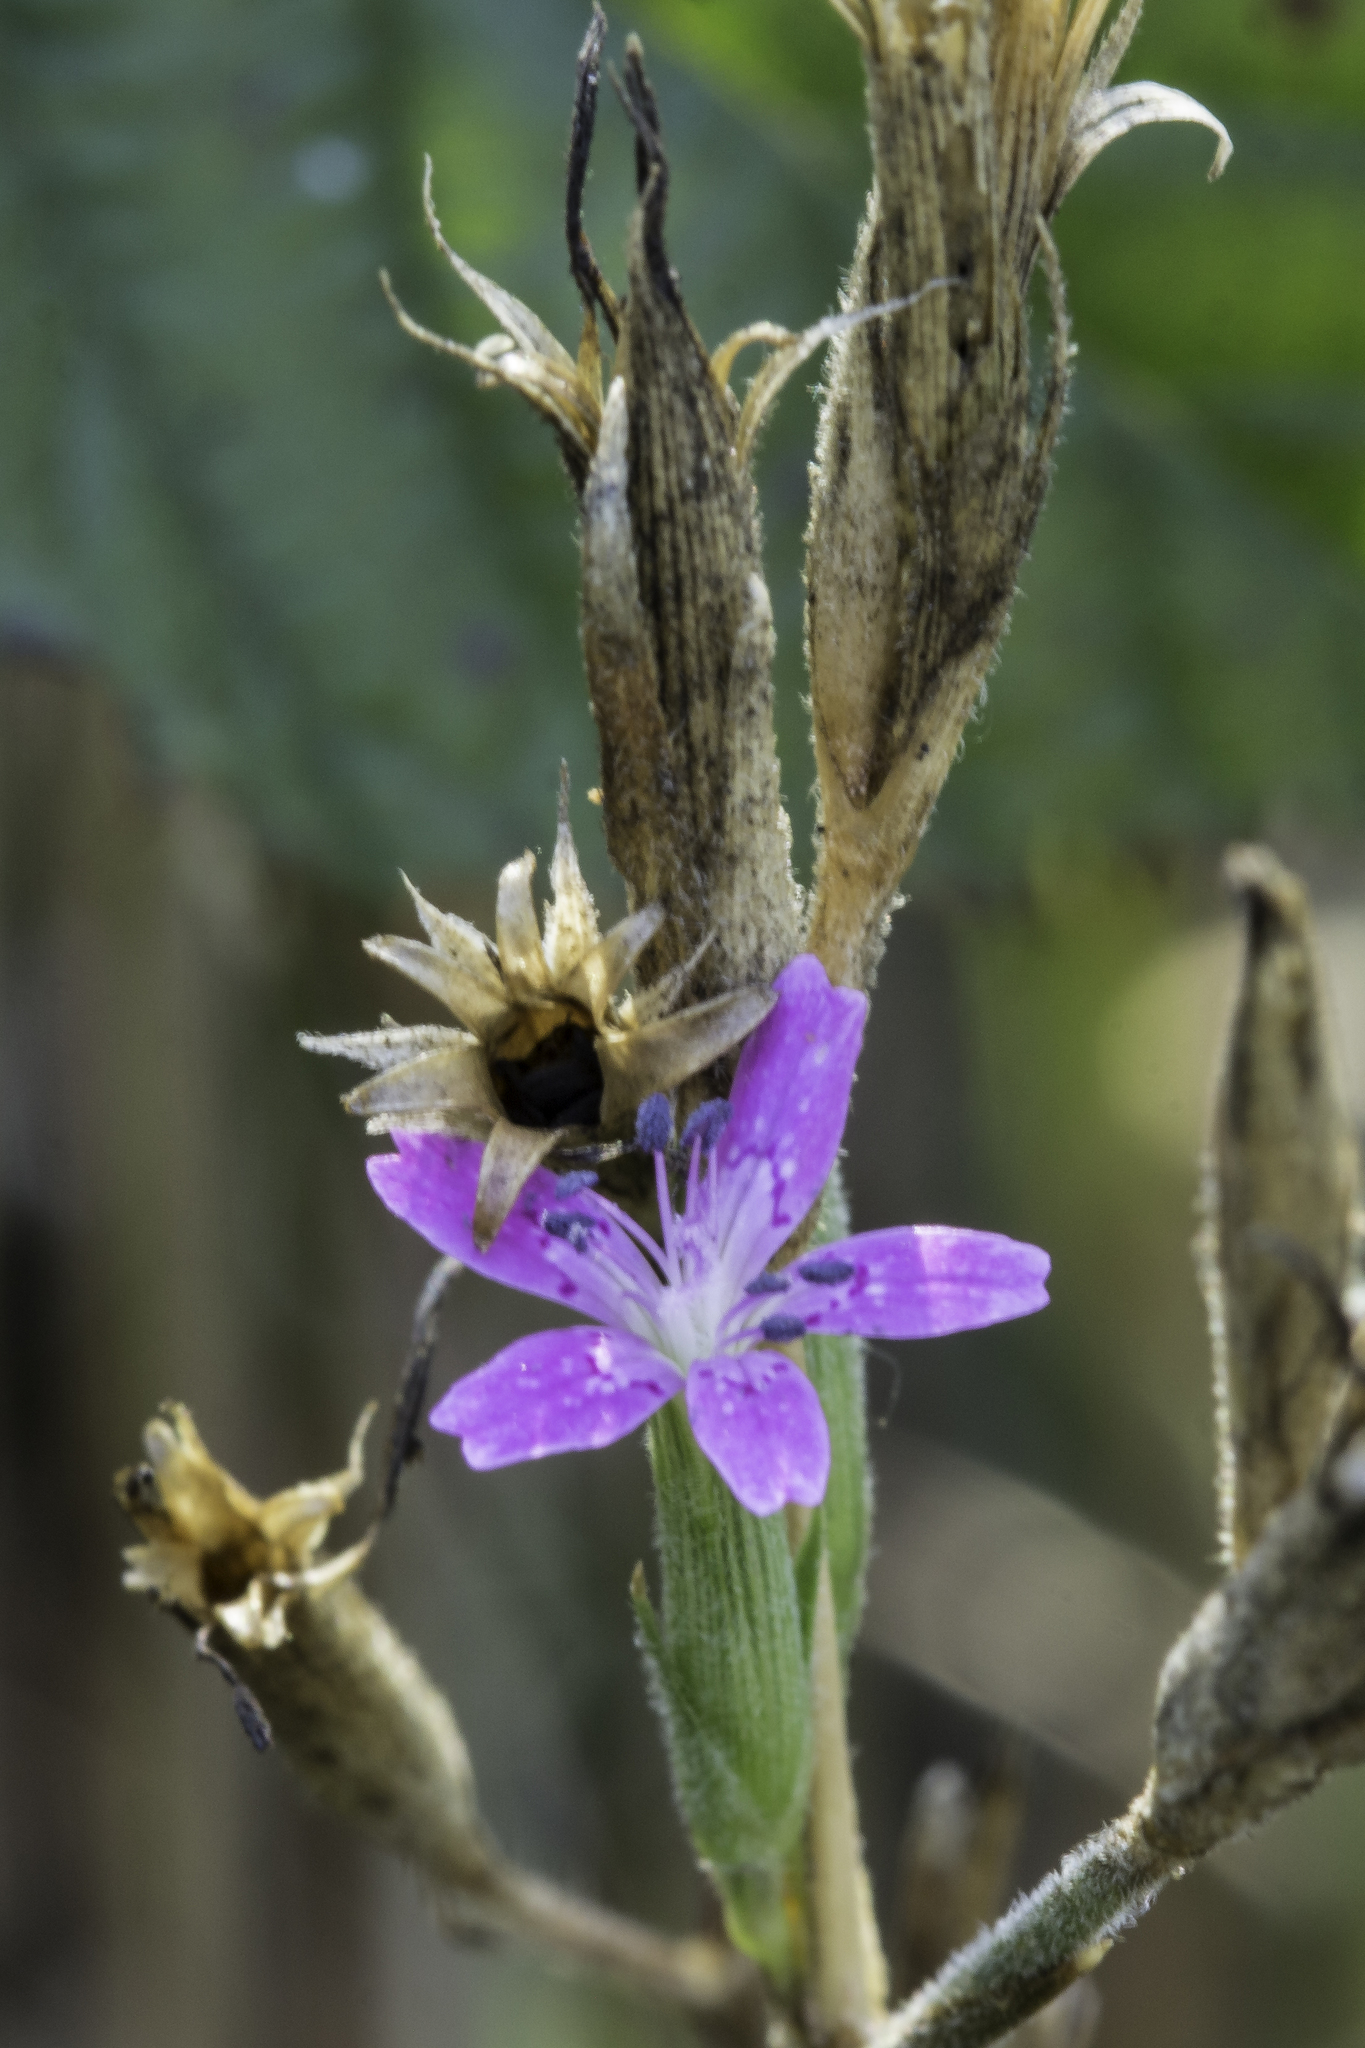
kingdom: Plantae
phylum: Tracheophyta
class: Magnoliopsida
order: Caryophyllales
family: Caryophyllaceae
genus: Dianthus
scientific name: Dianthus armeria
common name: Deptford pink
